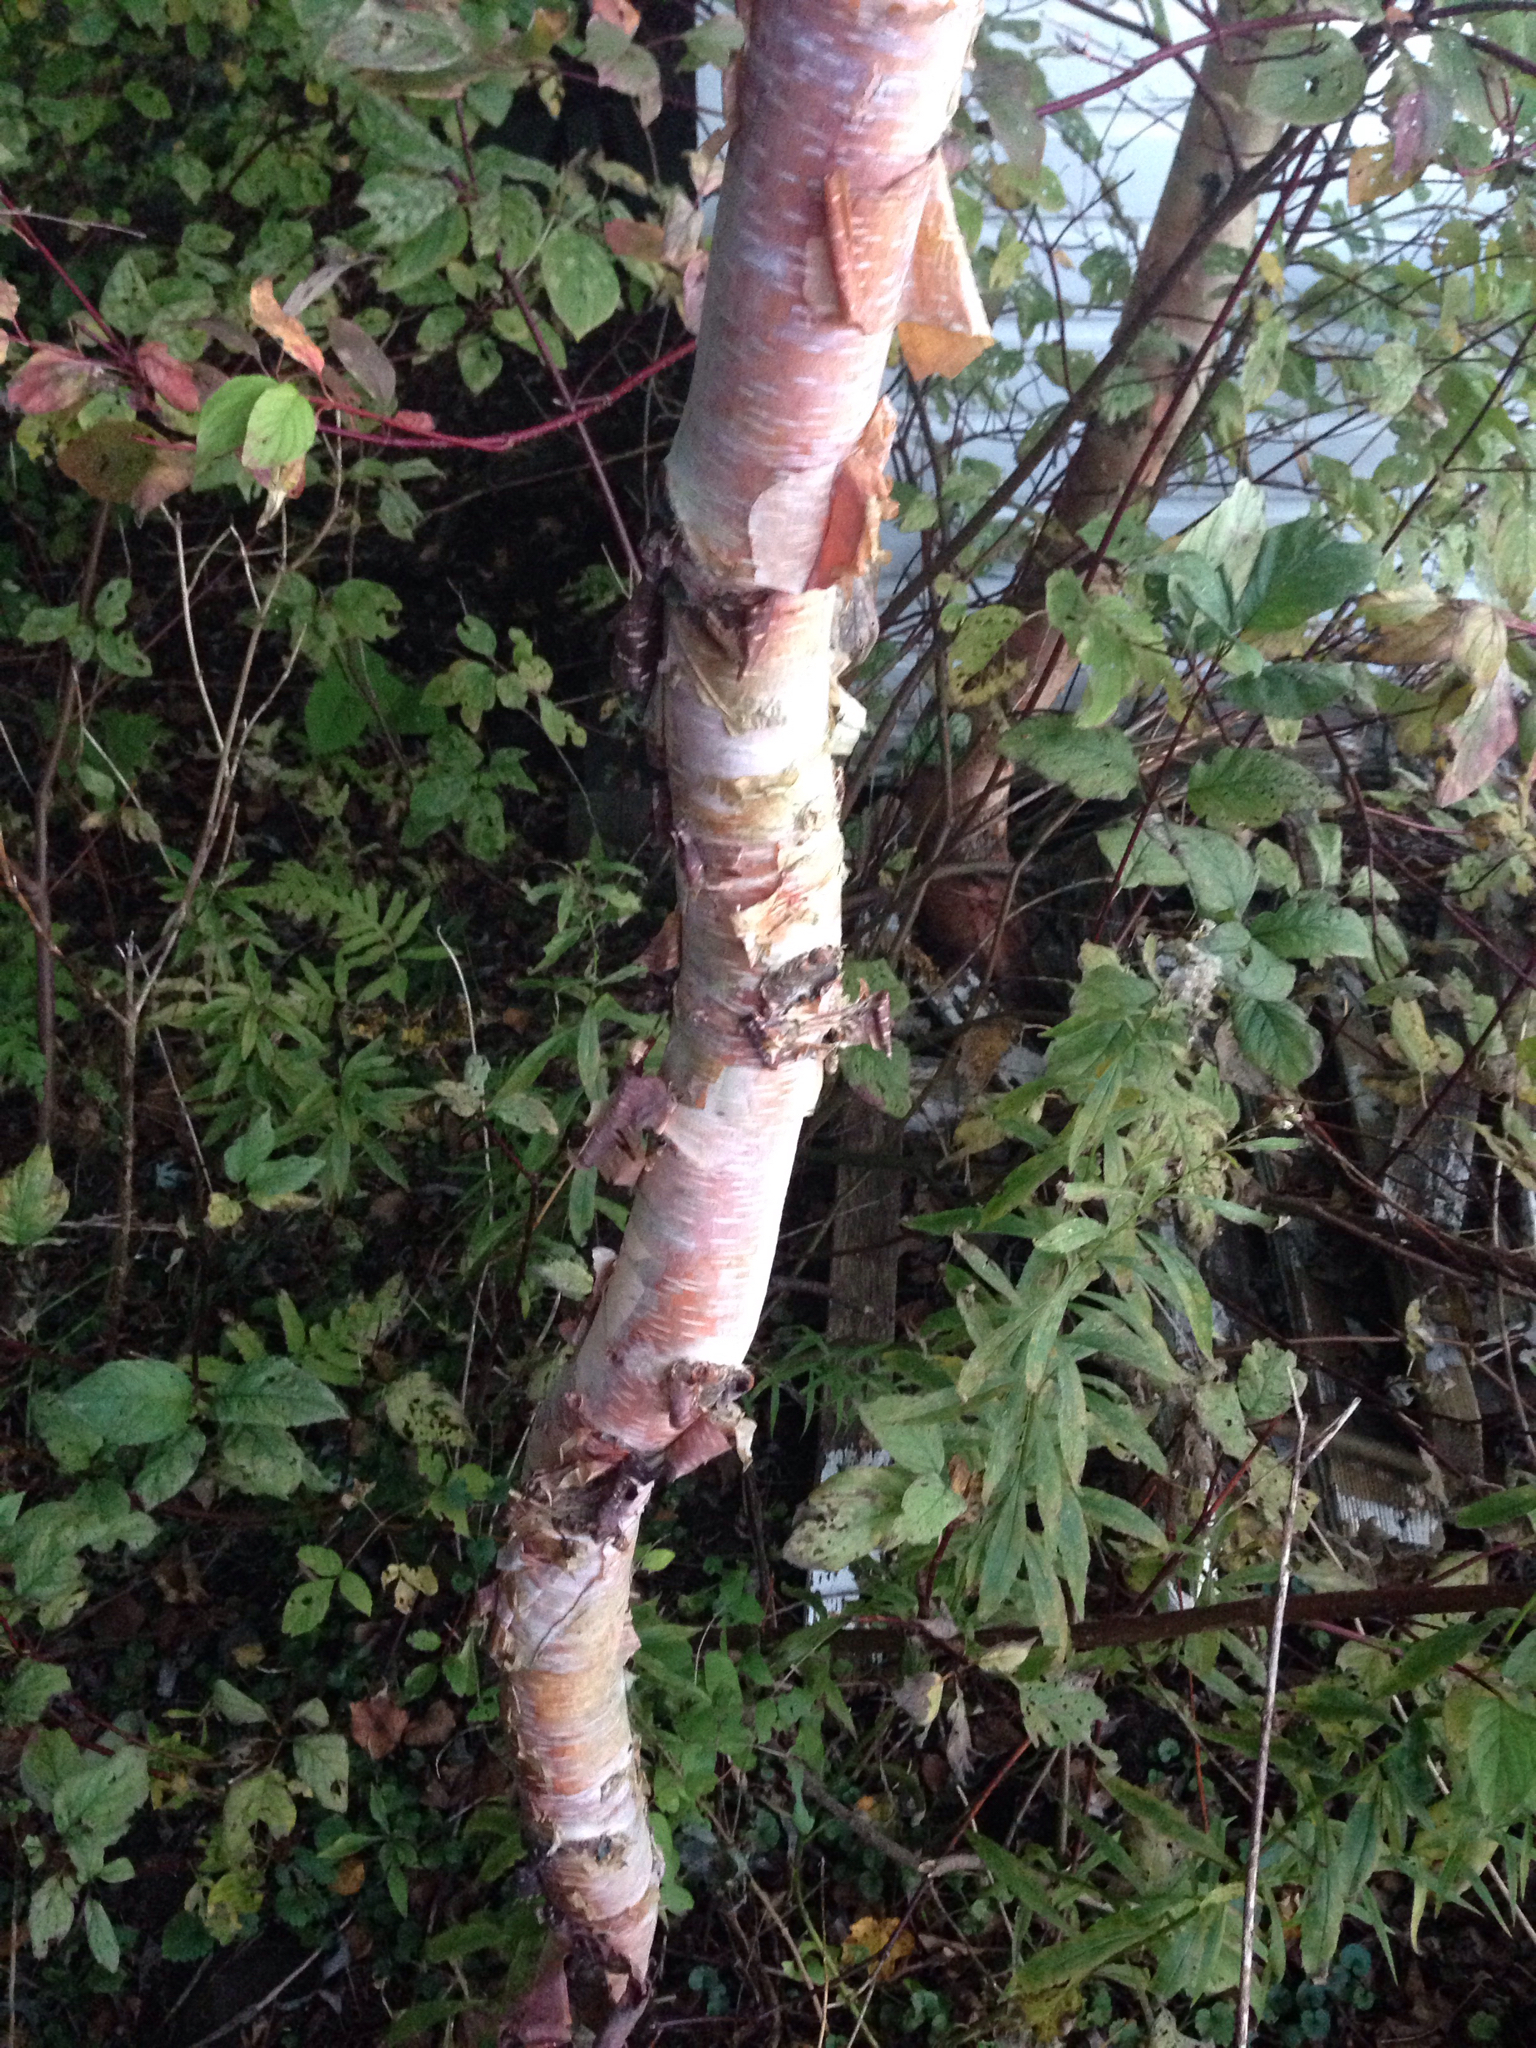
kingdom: Plantae
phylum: Tracheophyta
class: Magnoliopsida
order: Fagales
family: Betulaceae
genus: Betula
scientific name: Betula papyrifera
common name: Paper birch
